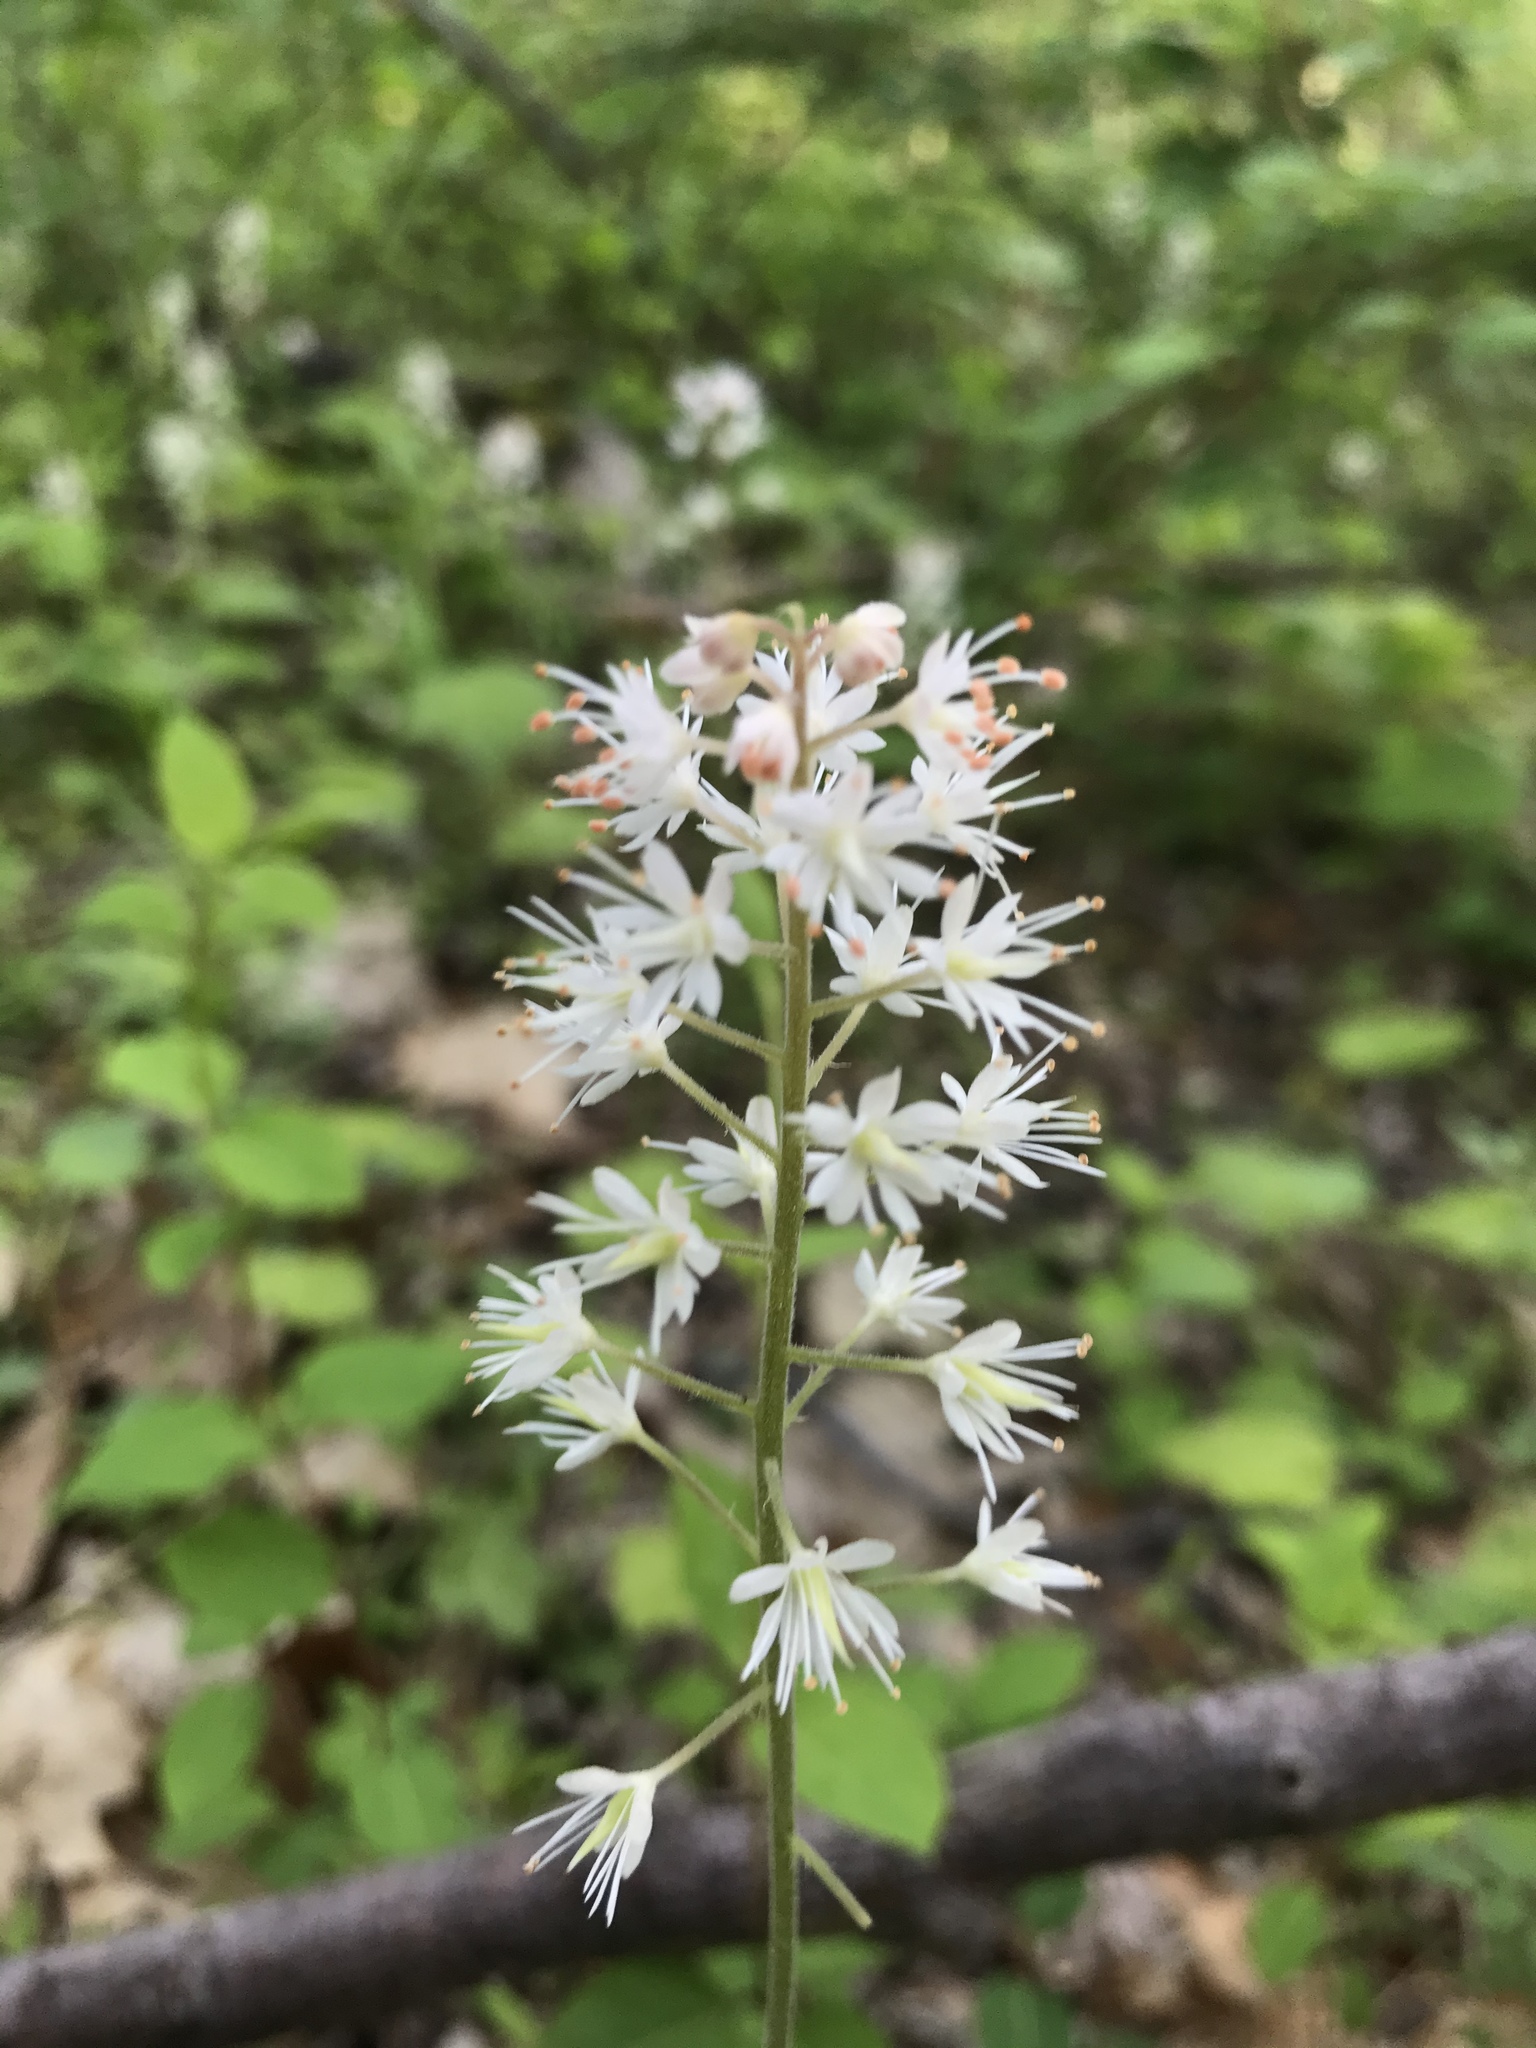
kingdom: Plantae
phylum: Tracheophyta
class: Magnoliopsida
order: Saxifragales
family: Saxifragaceae
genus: Tiarella
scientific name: Tiarella stolonifera
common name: Stoloniferous foamflower
